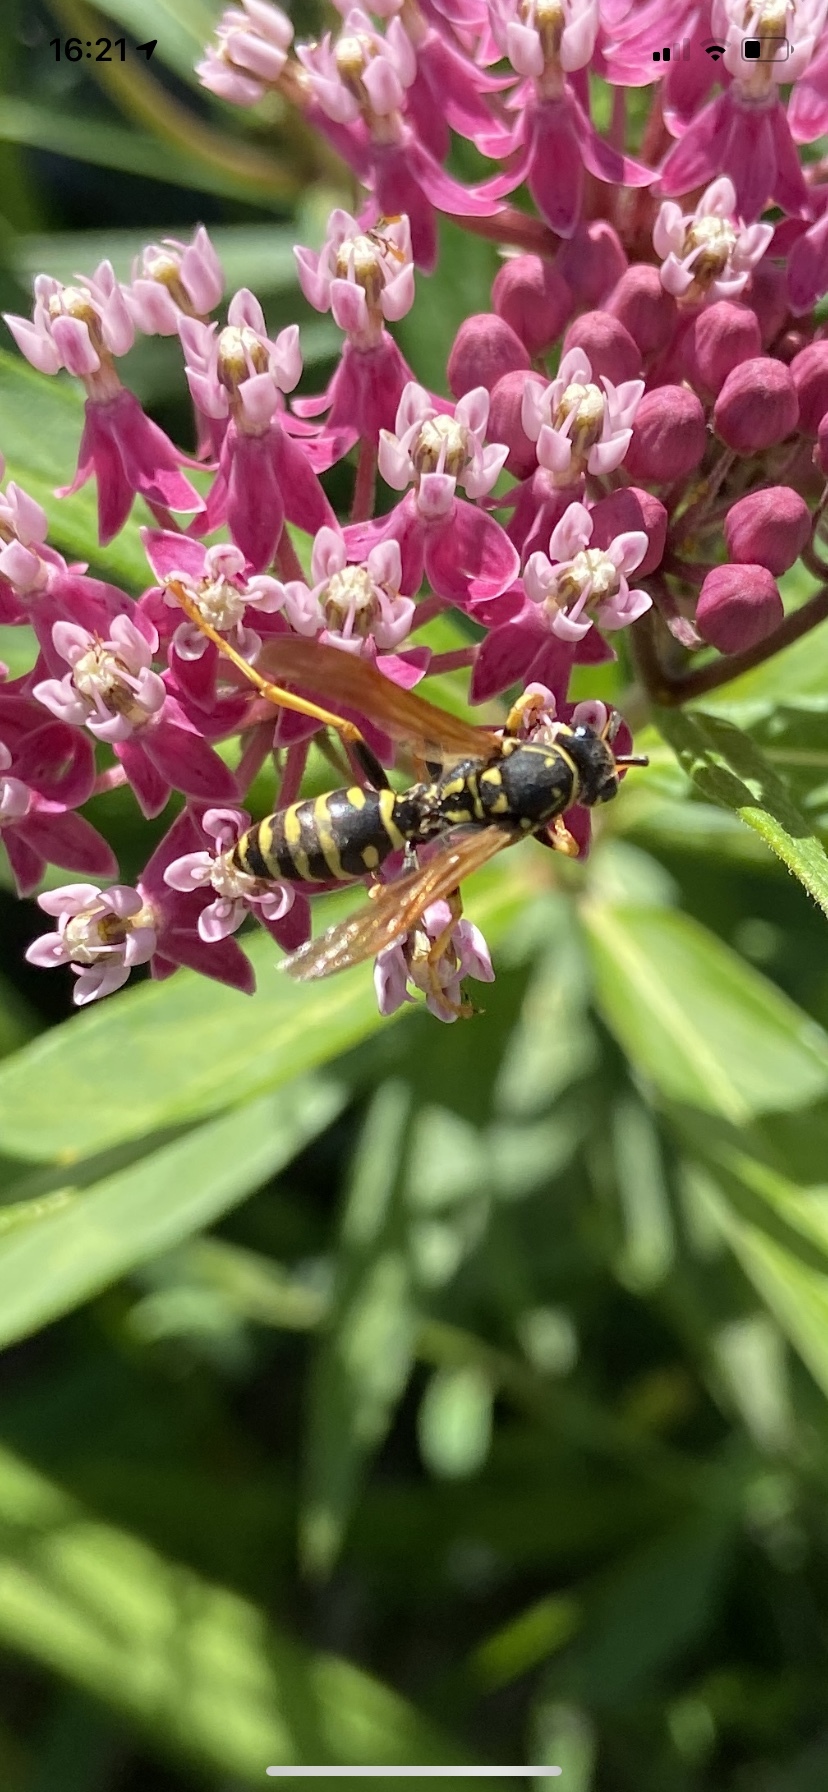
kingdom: Animalia
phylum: Arthropoda
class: Insecta
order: Hymenoptera
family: Eumenidae
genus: Polistes
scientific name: Polistes dominula
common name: Paper wasp
